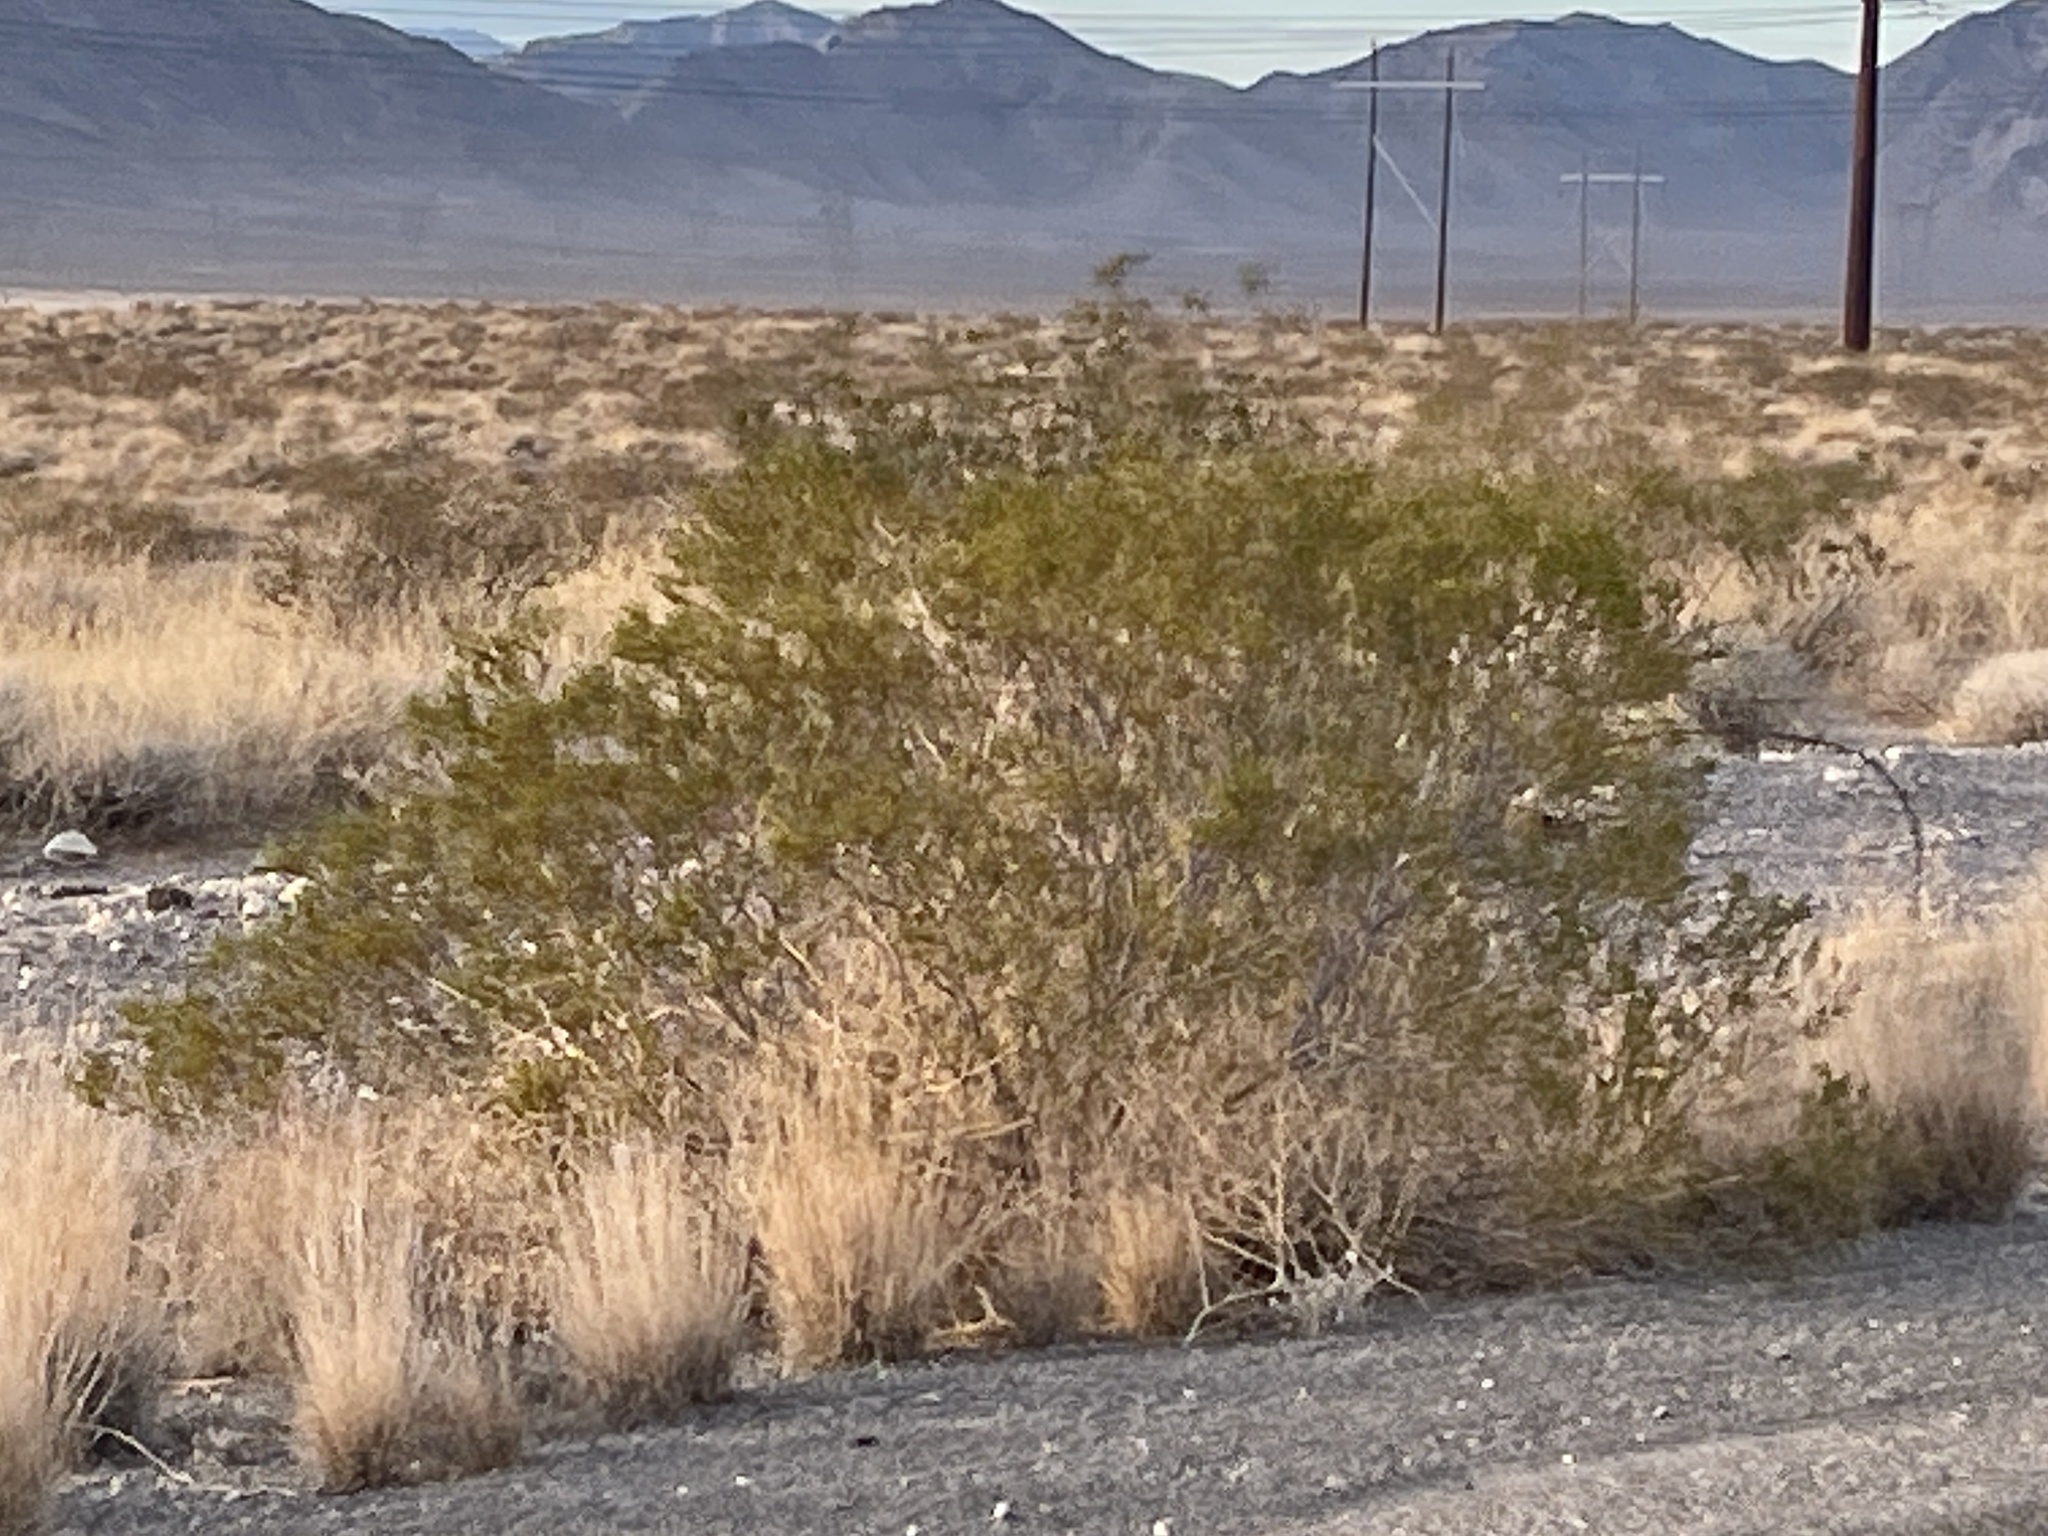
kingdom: Plantae
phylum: Tracheophyta
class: Magnoliopsida
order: Zygophyllales
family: Zygophyllaceae
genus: Larrea
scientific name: Larrea tridentata
